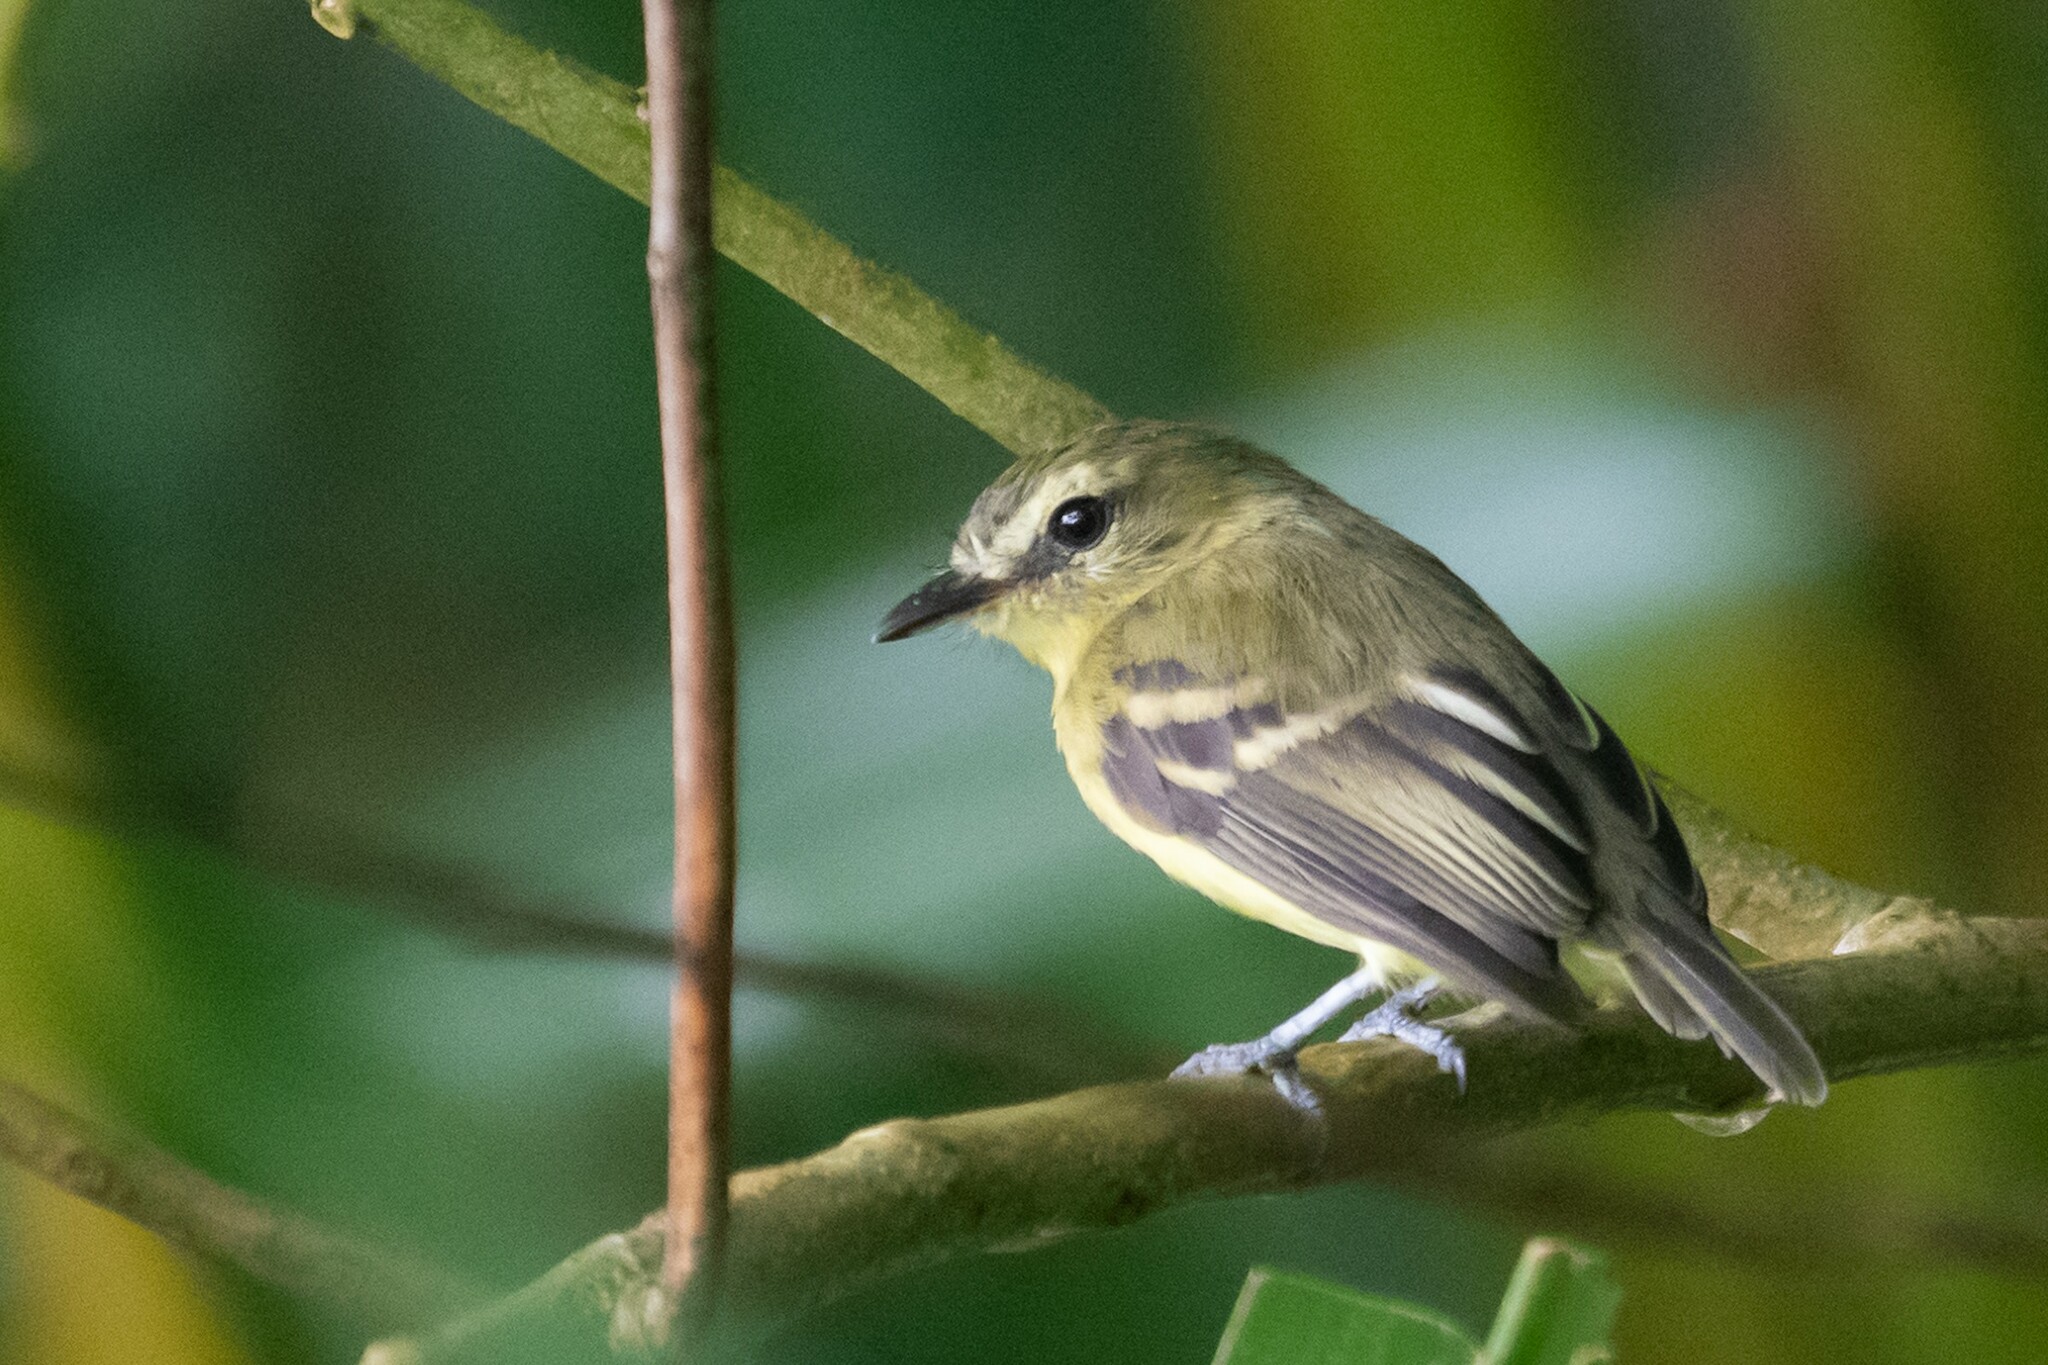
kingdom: Animalia
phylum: Chordata
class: Aves
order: Passeriformes
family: Tyrannidae
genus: Capsiempis
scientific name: Capsiempis flaveola
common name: Yellow tyrannulet
